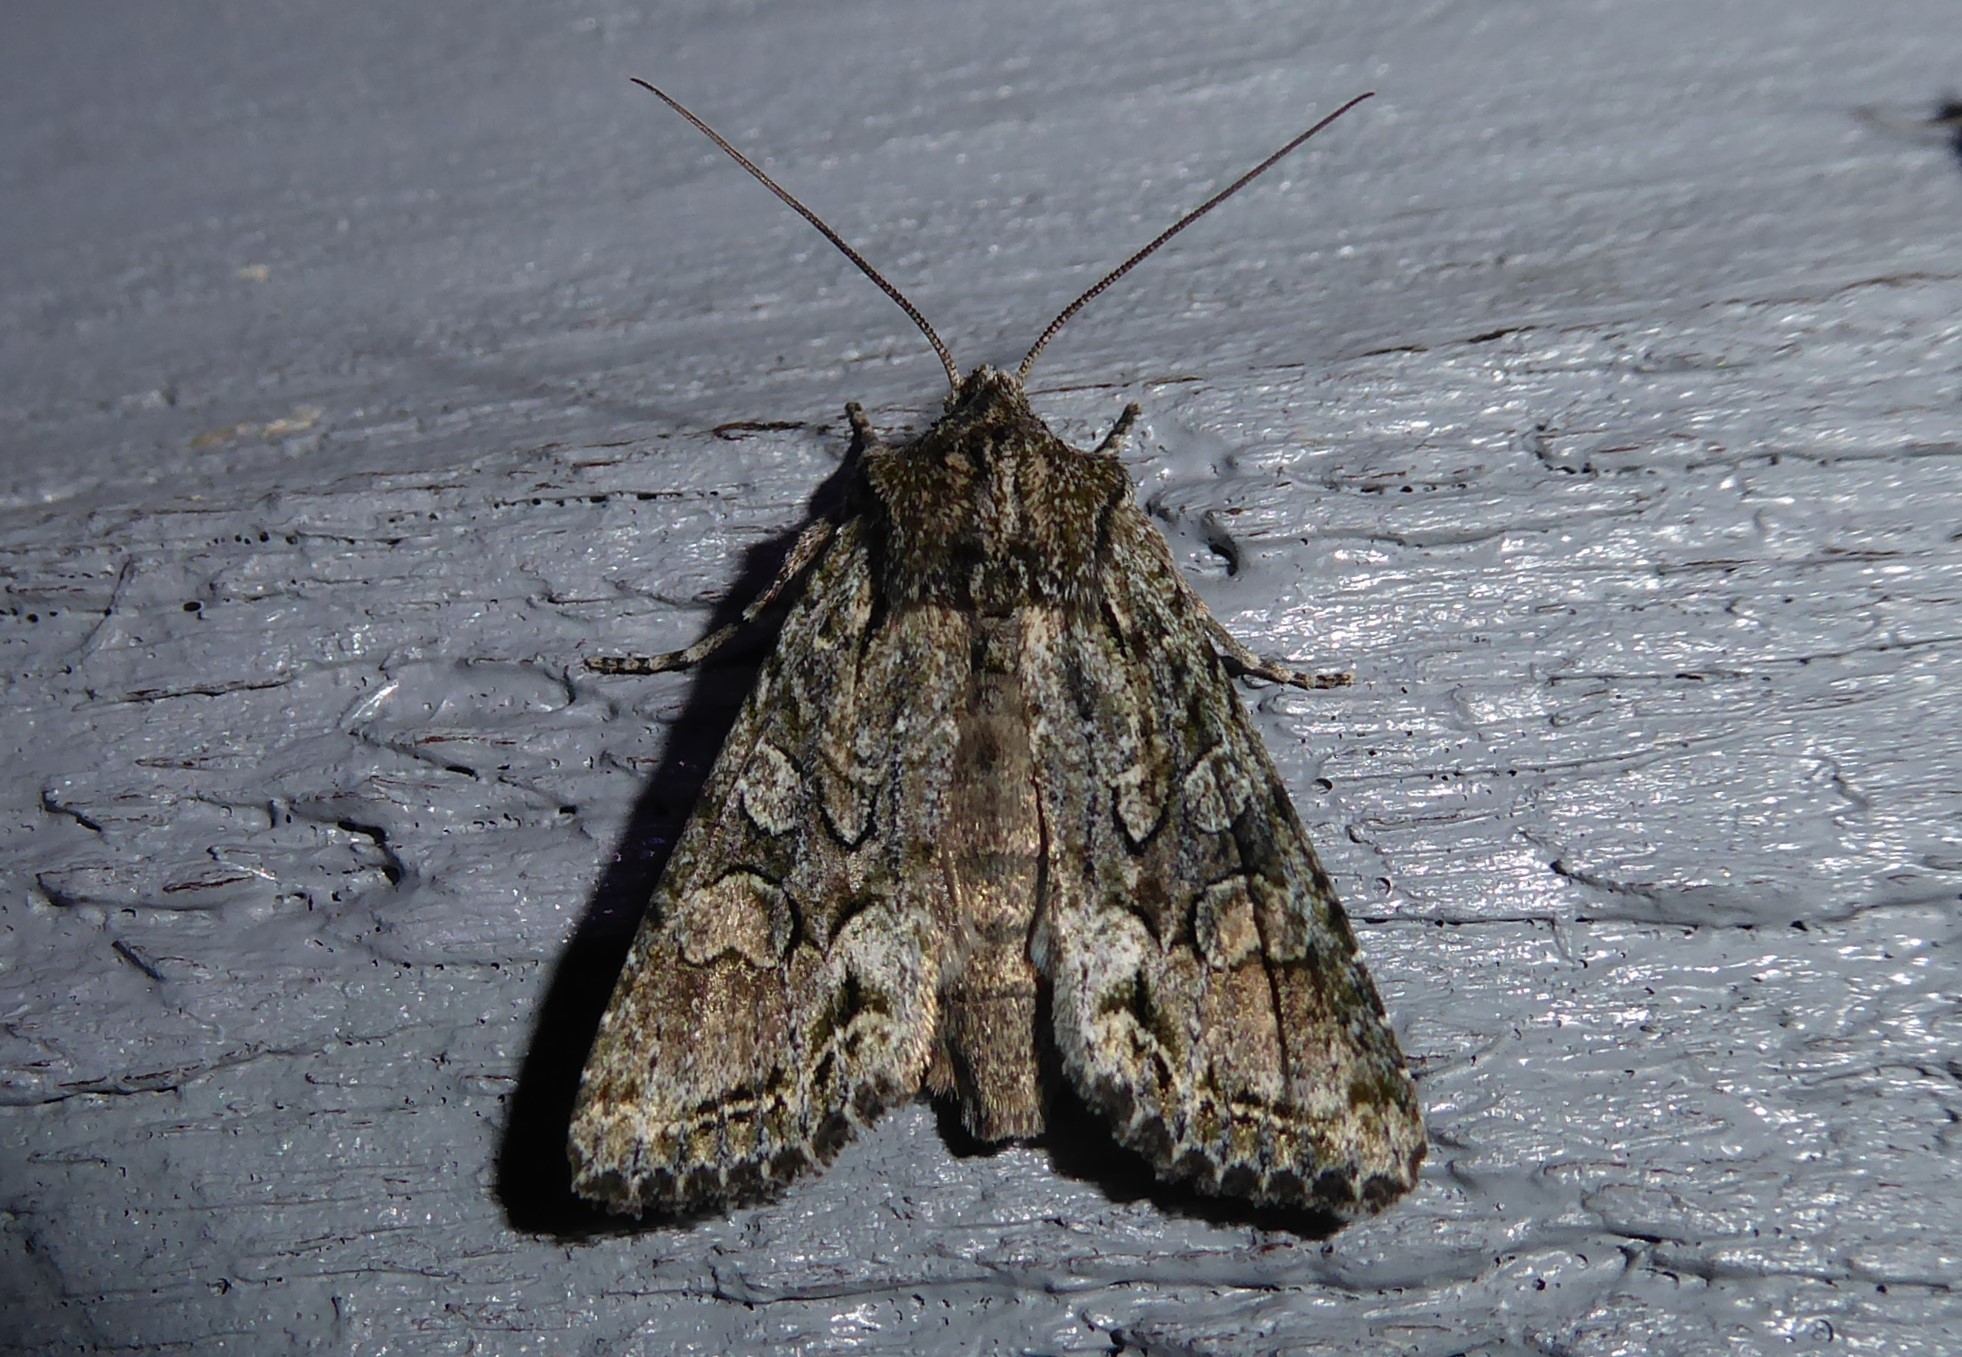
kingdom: Animalia
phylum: Arthropoda
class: Insecta
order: Lepidoptera
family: Noctuidae
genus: Ichneutica
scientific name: Ichneutica mutans
